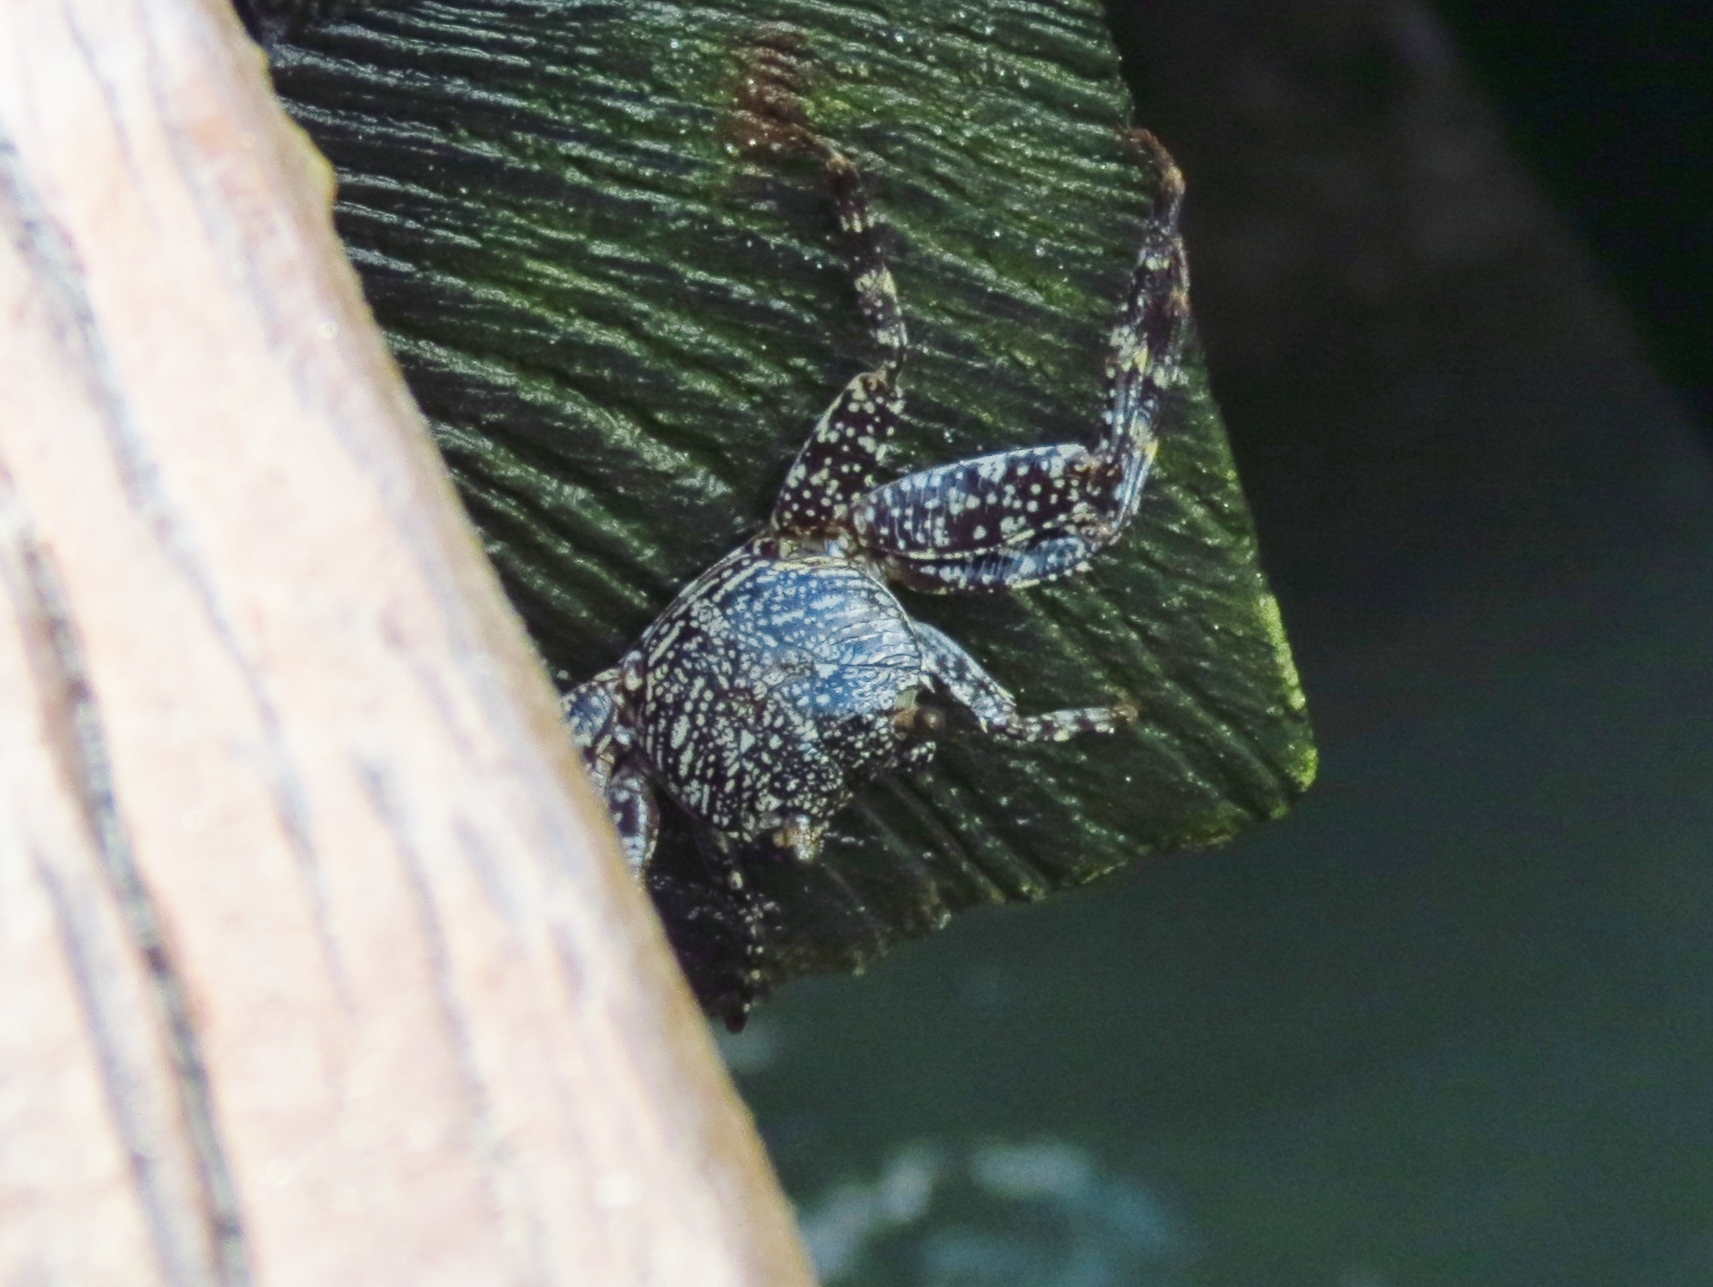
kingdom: Animalia
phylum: Arthropoda
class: Malacostraca
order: Decapoda
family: Grapsidae
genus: Grapsus
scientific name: Grapsus grapsus
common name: Sally lightfoot
